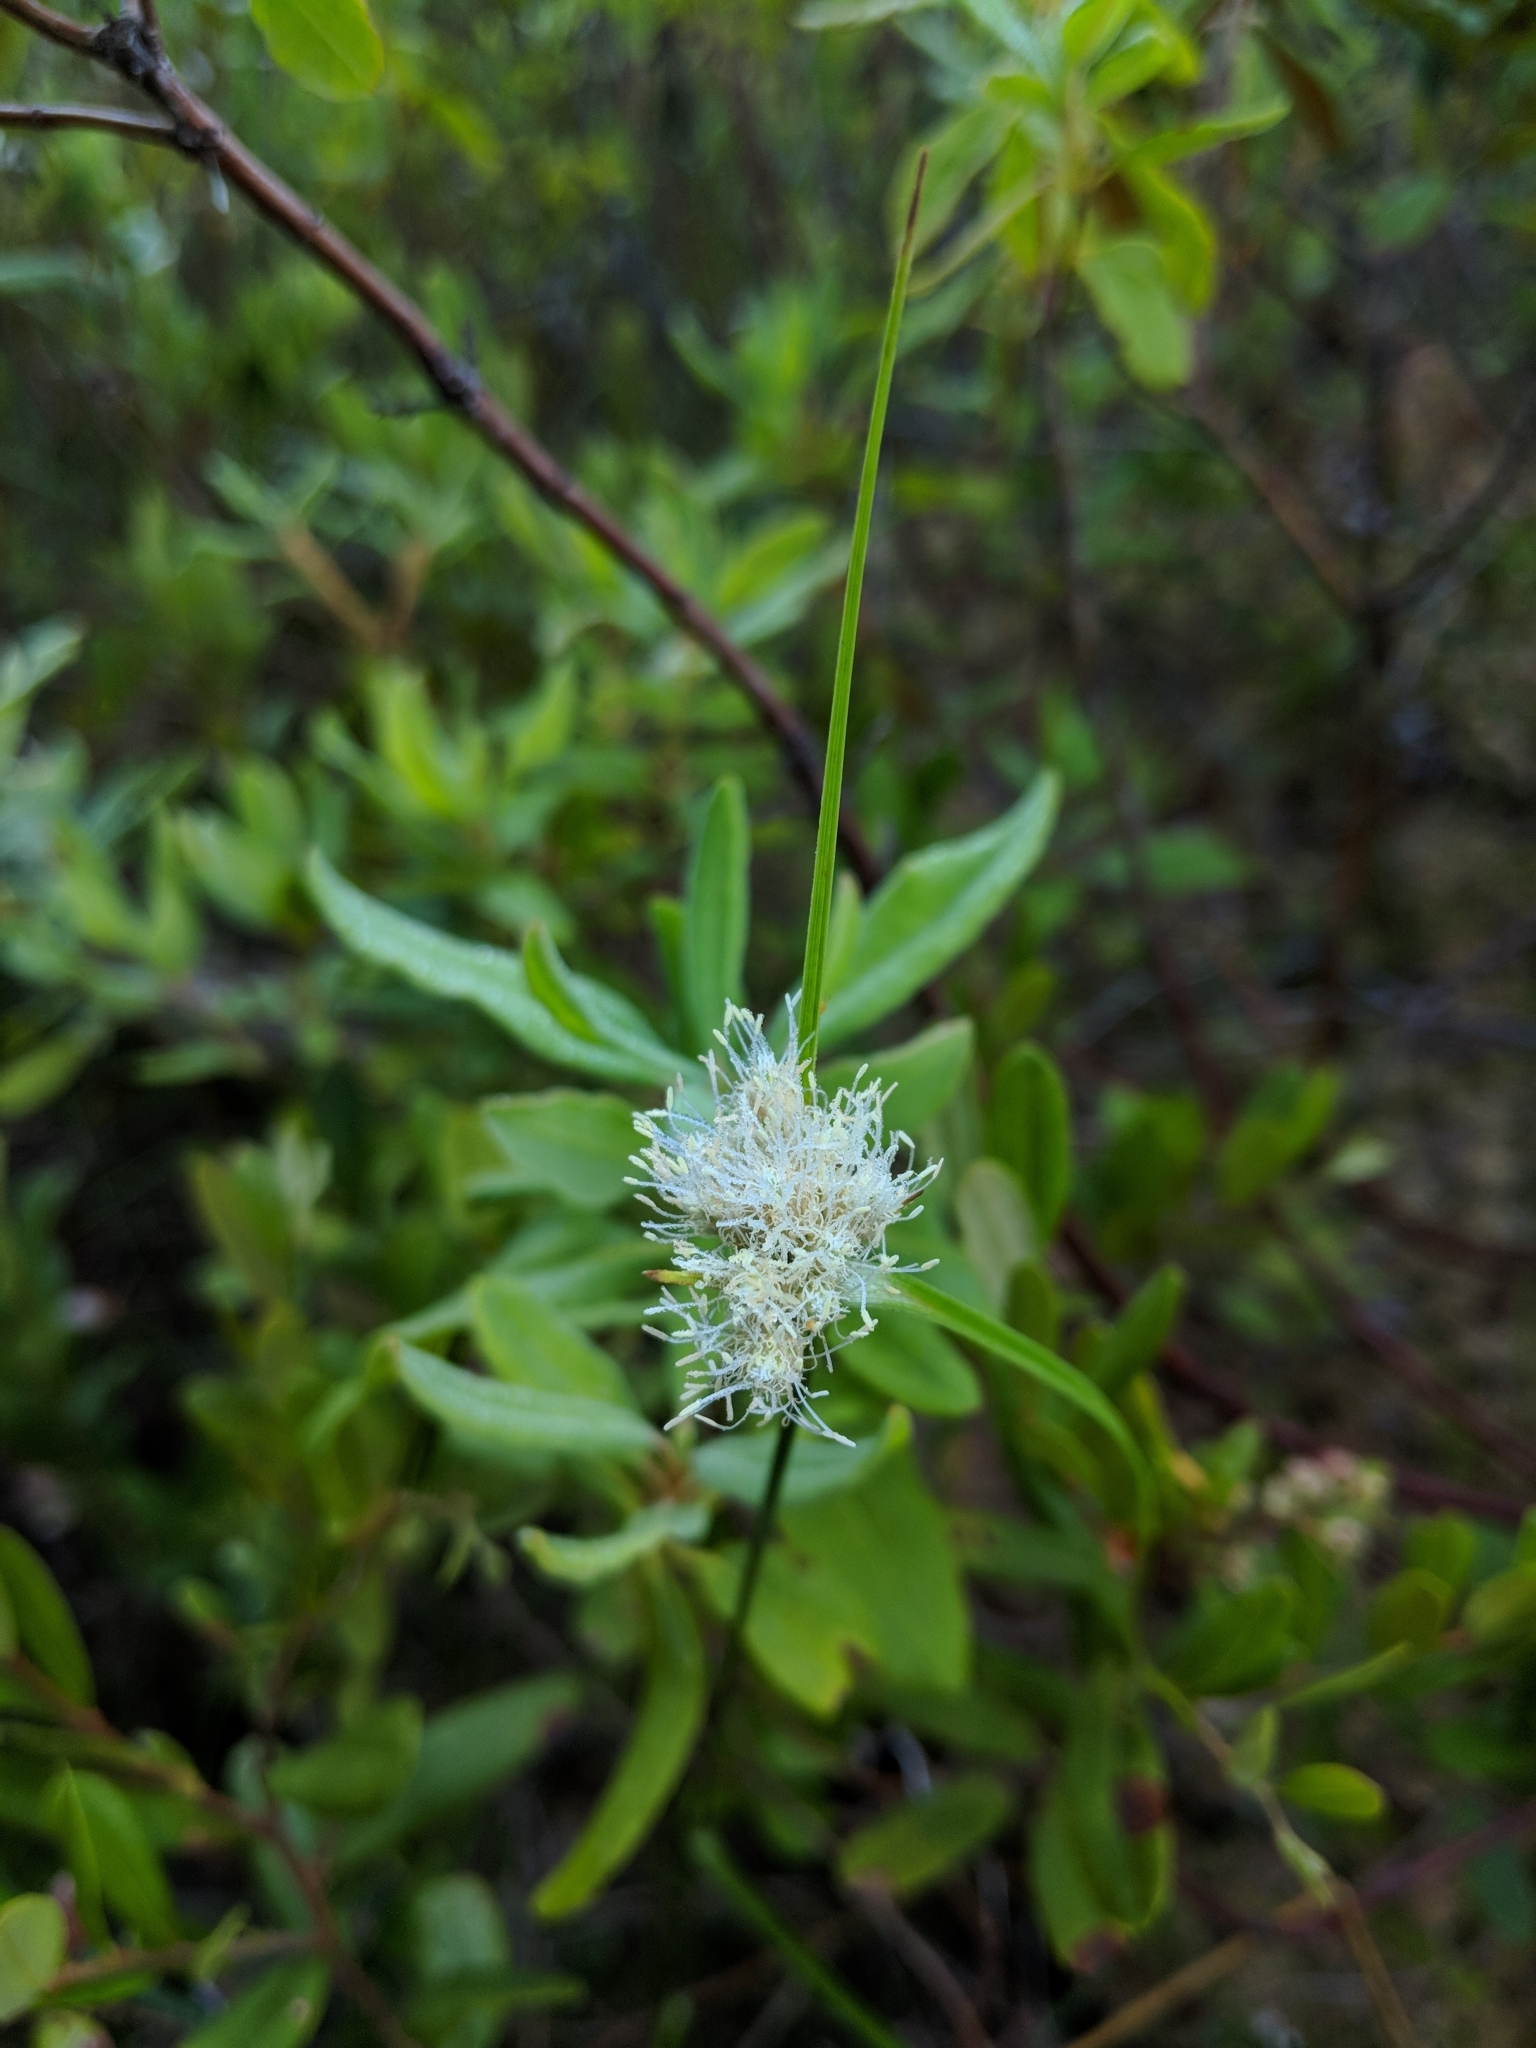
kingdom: Plantae
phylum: Tracheophyta
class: Liliopsida
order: Poales
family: Cyperaceae
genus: Eriophorum
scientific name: Eriophorum virginicum
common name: Tawny cottongrass
